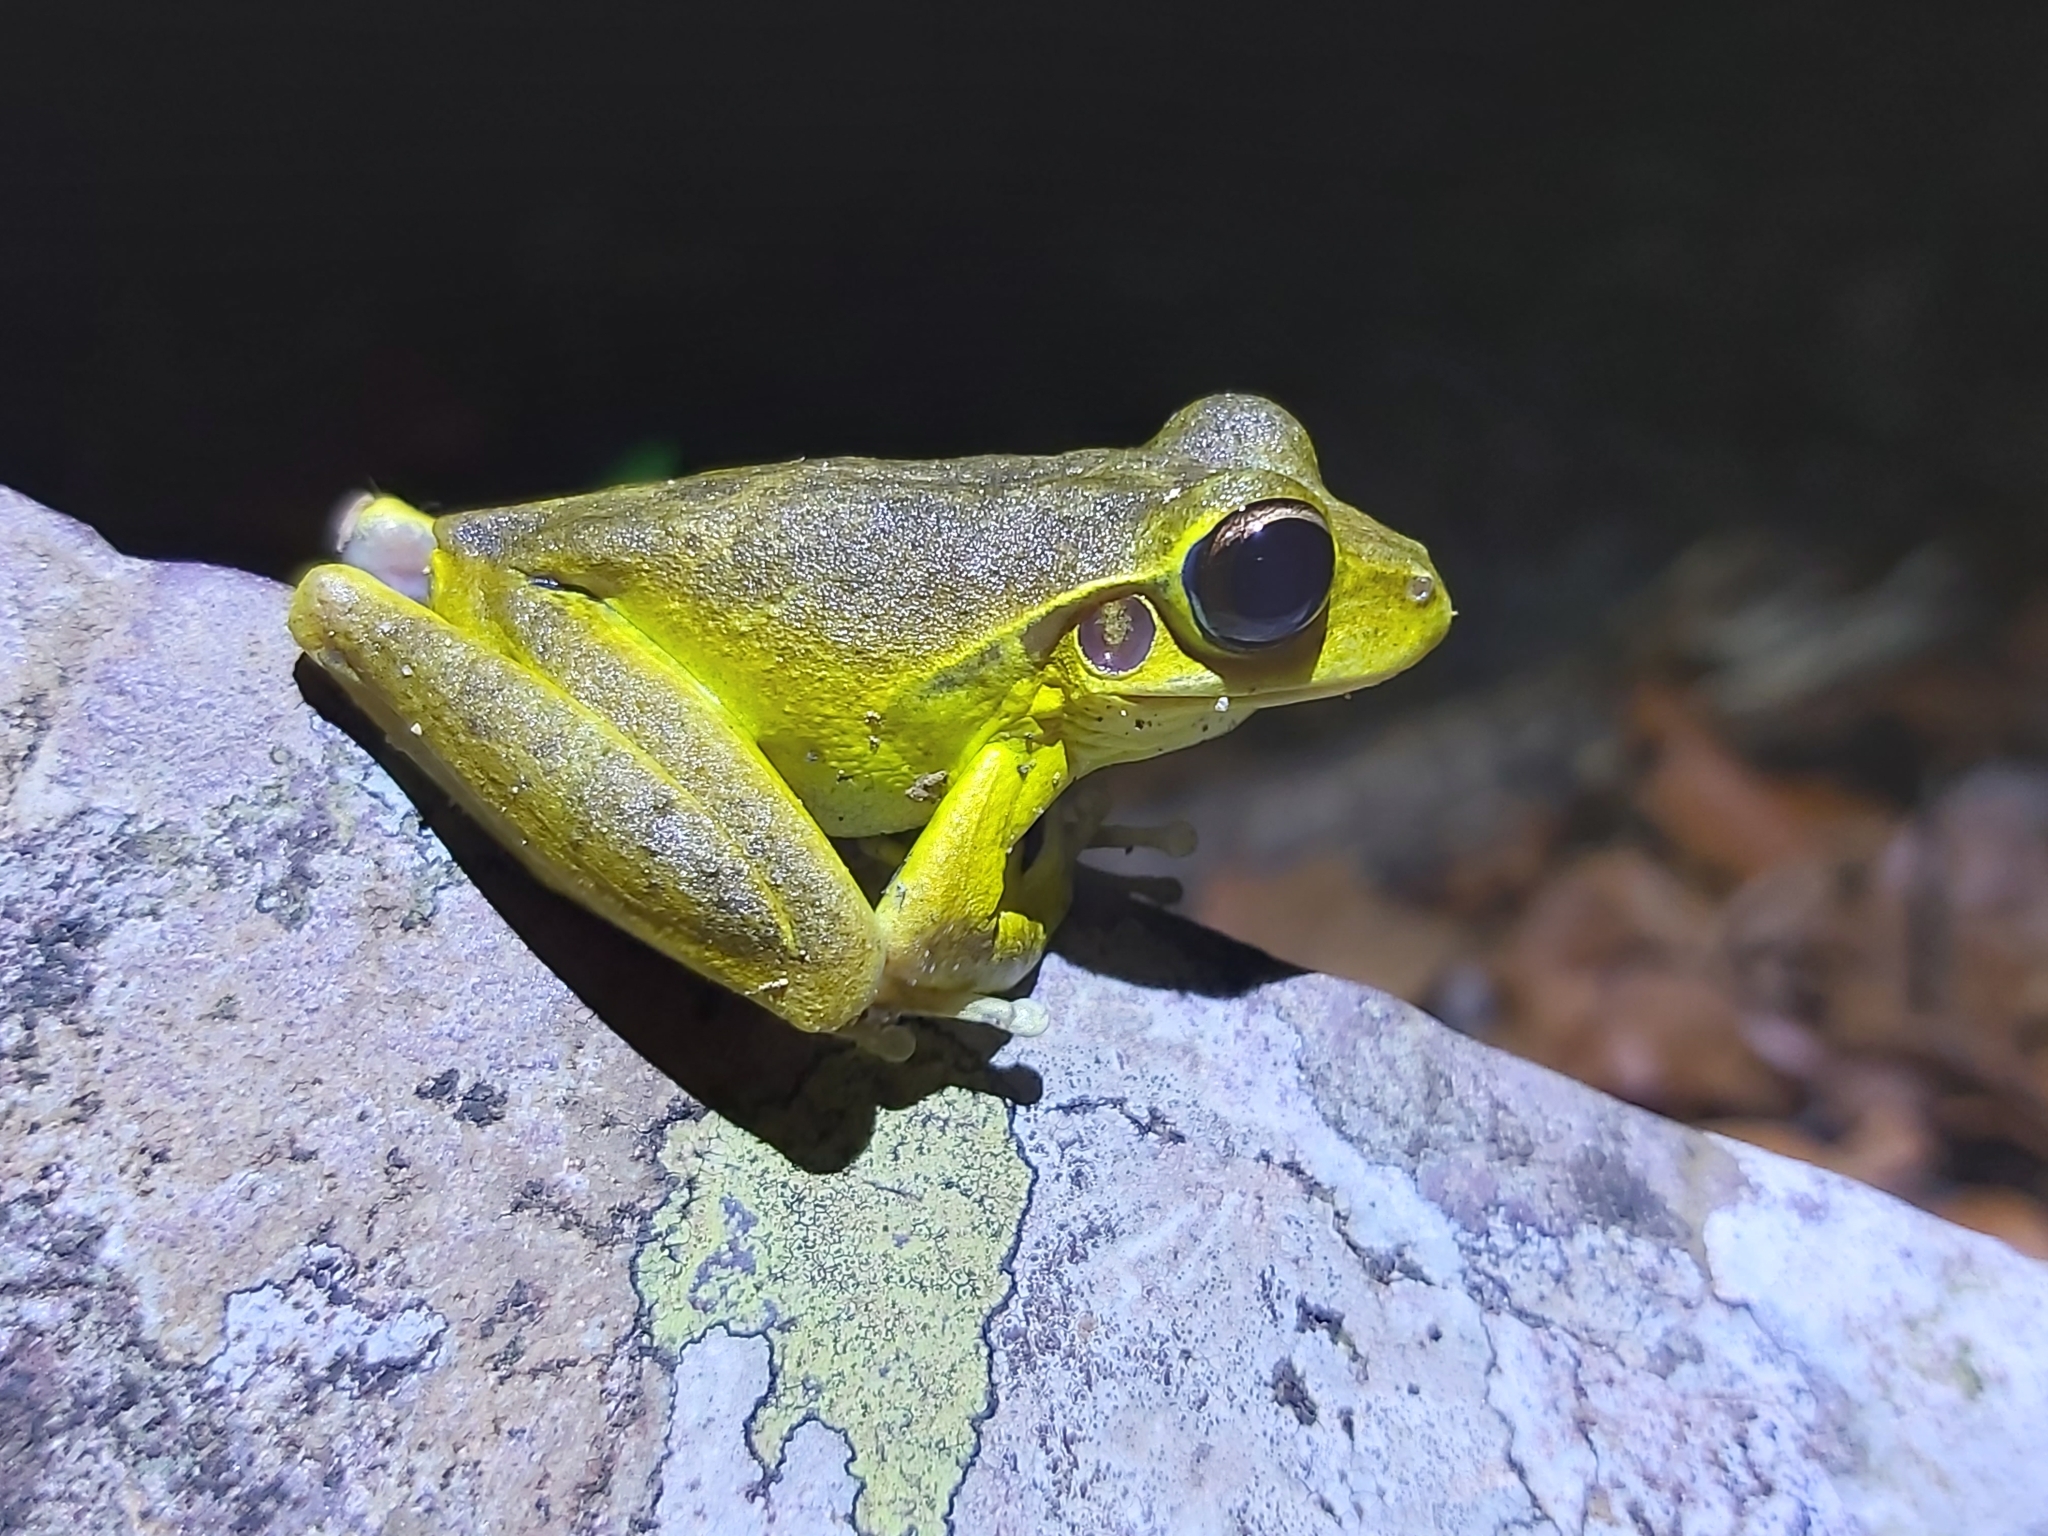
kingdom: Animalia
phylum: Chordata
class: Amphibia
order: Anura
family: Hylidae
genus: Ranoidea
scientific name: Ranoidea
